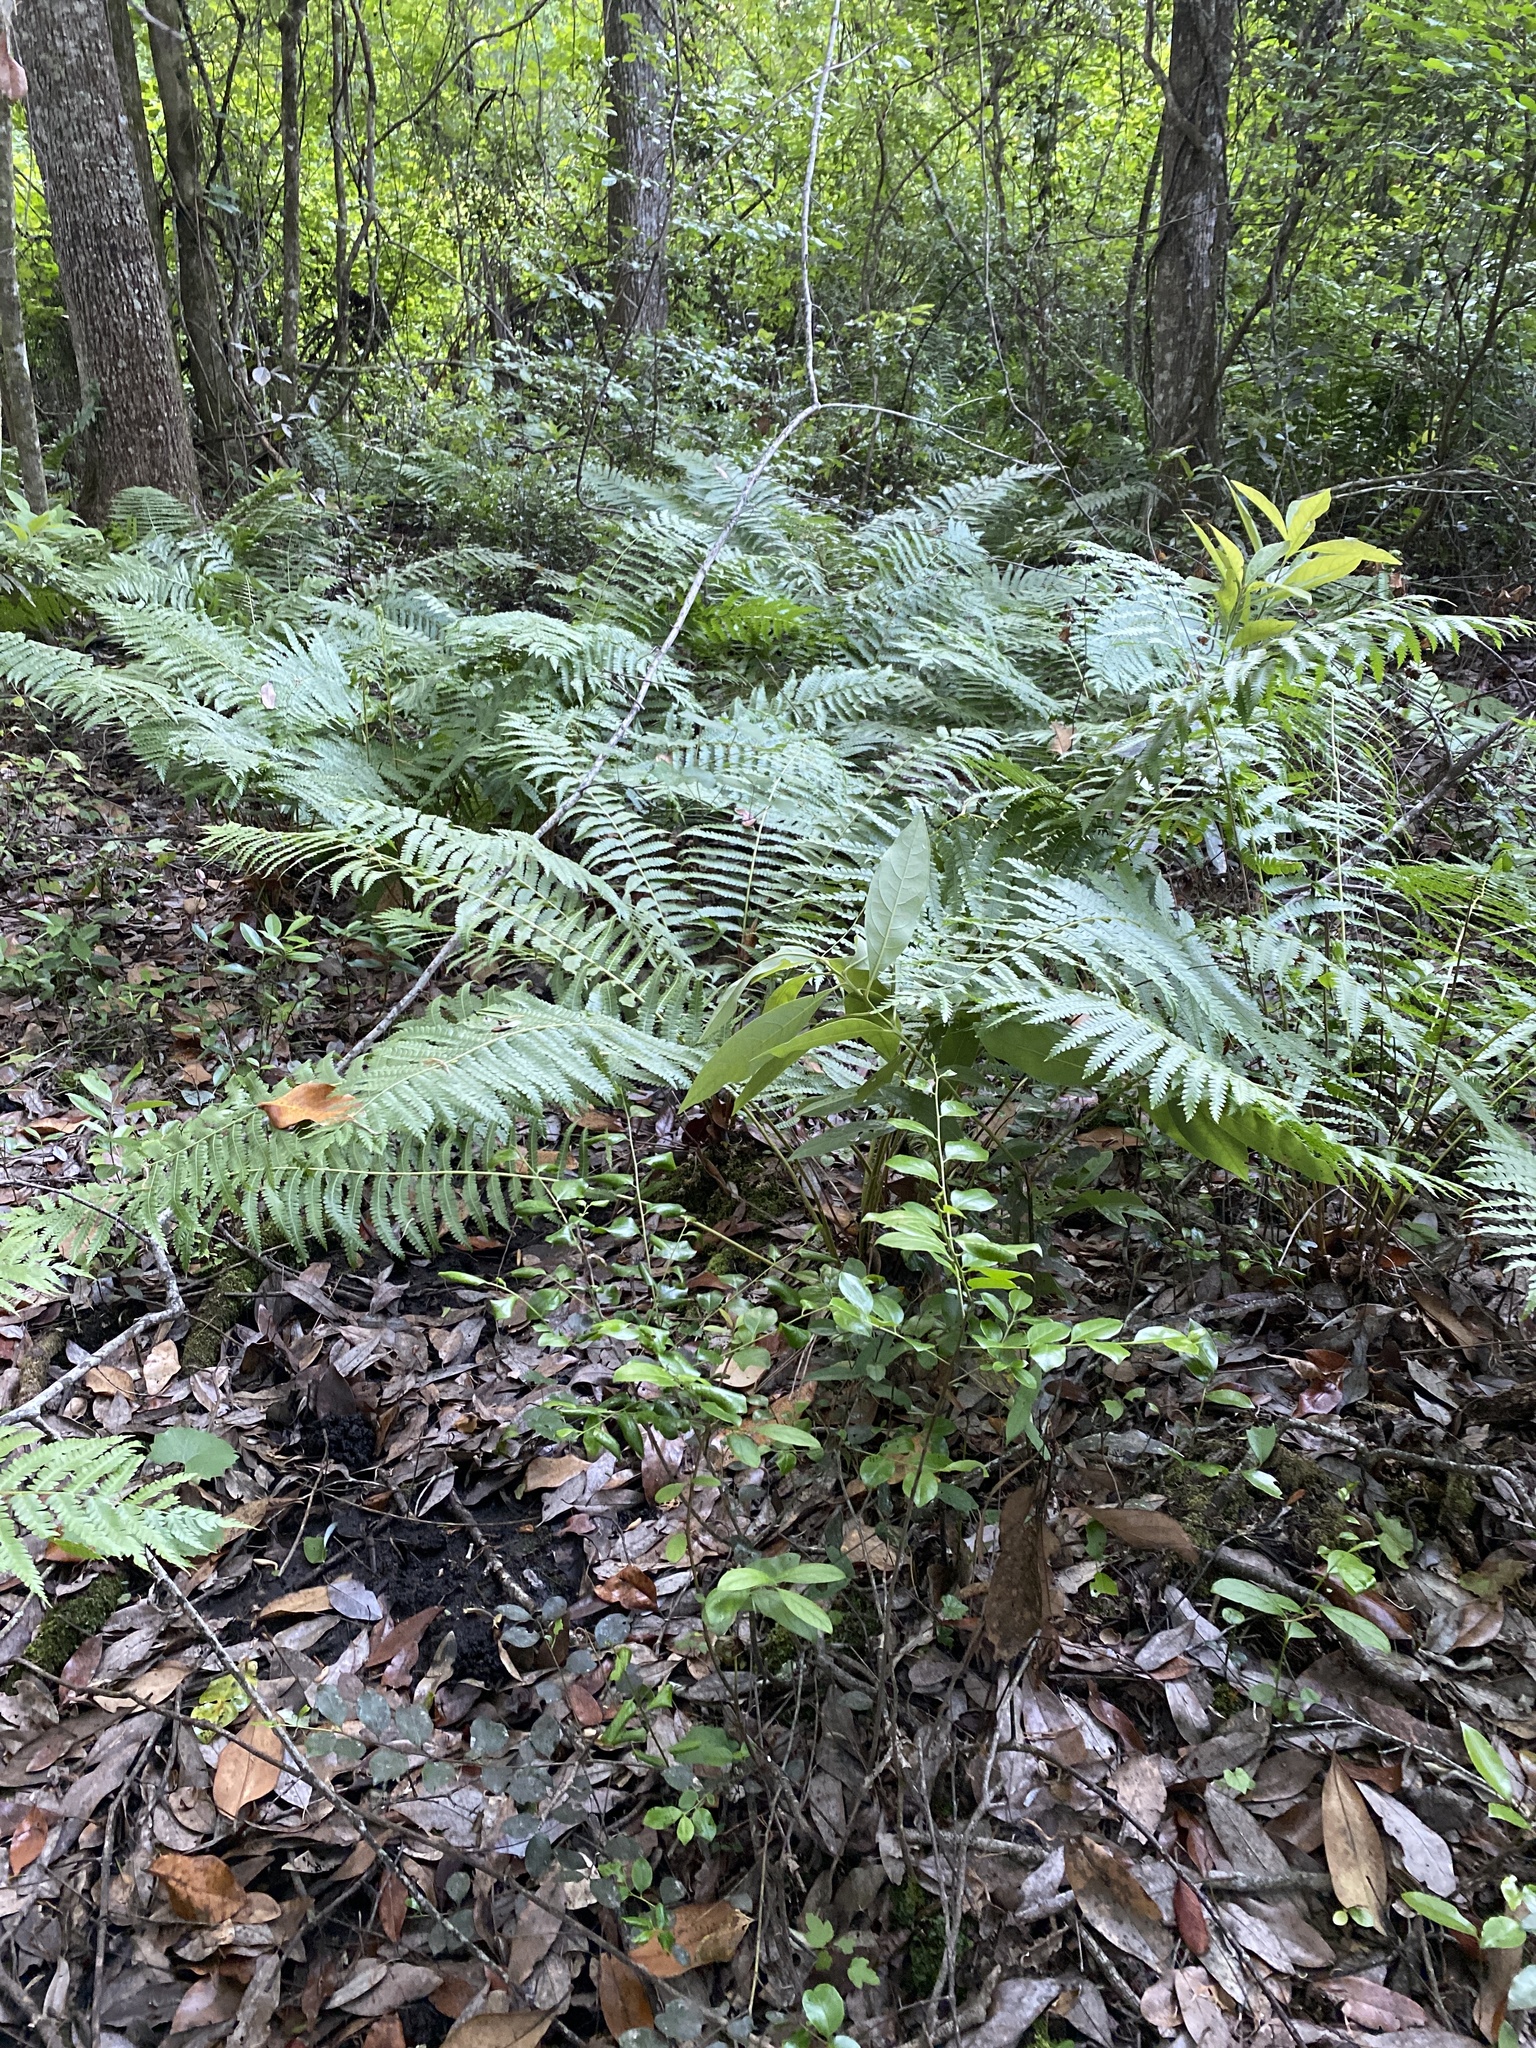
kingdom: Plantae
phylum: Tracheophyta
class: Polypodiopsida
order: Osmundales
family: Osmundaceae
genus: Osmundastrum
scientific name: Osmundastrum cinnamomeum
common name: Cinnamon fern
